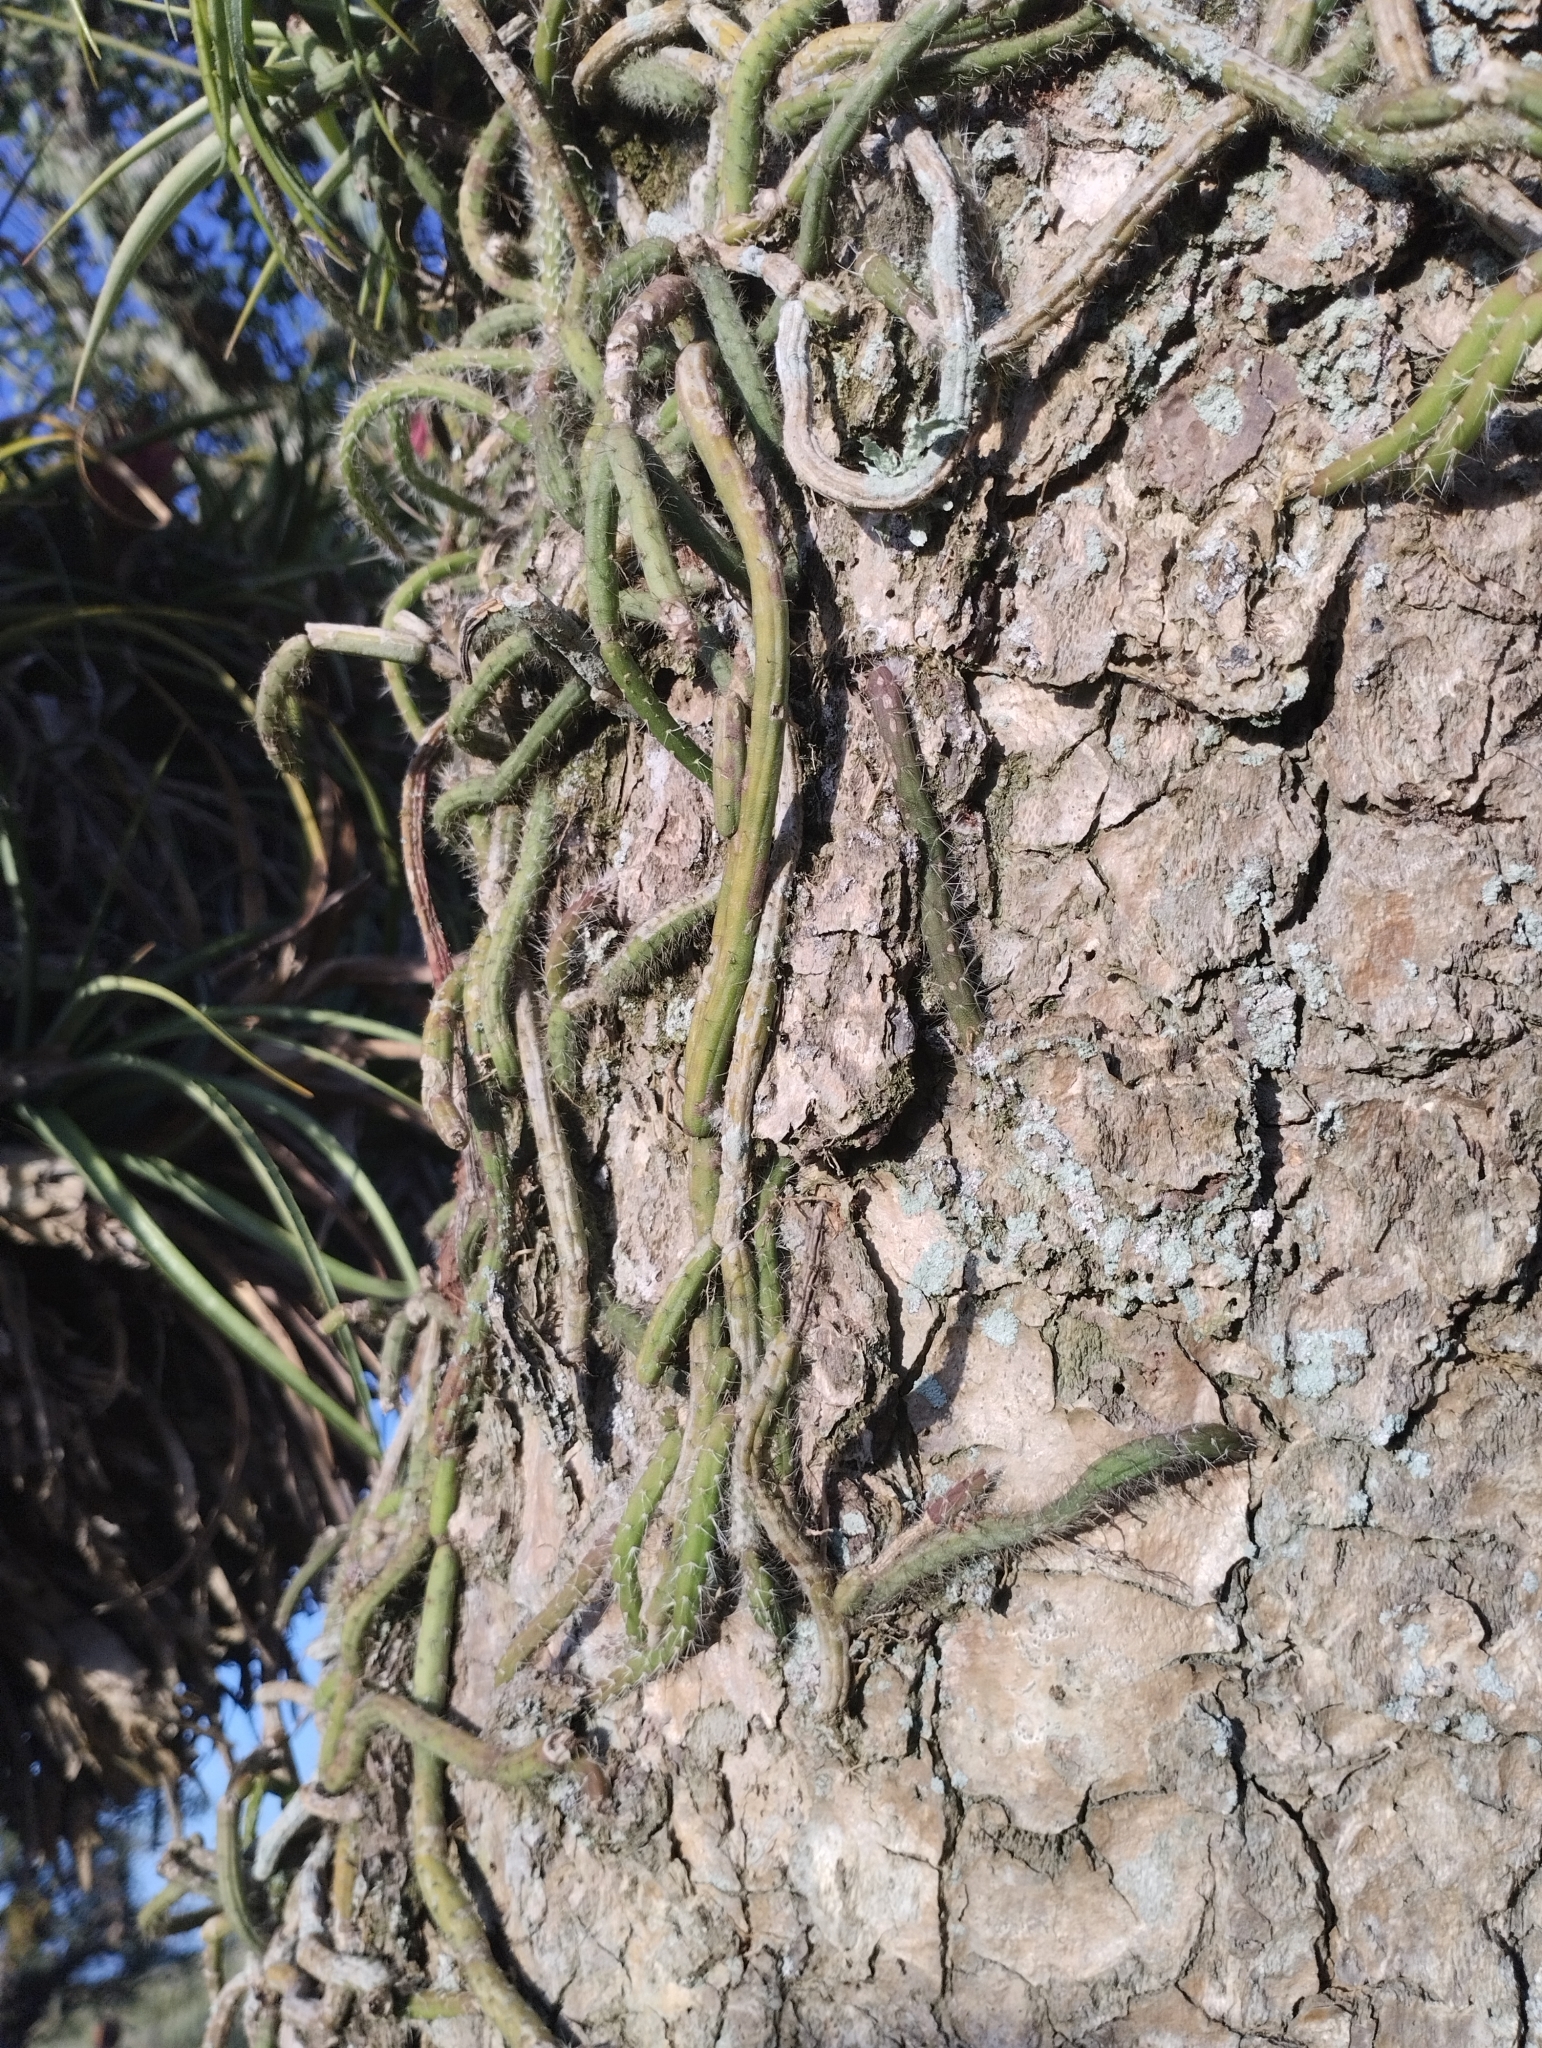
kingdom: Plantae
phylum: Tracheophyta
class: Magnoliopsida
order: Caryophyllales
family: Cactaceae
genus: Lepismium
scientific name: Lepismium lumbricoides
